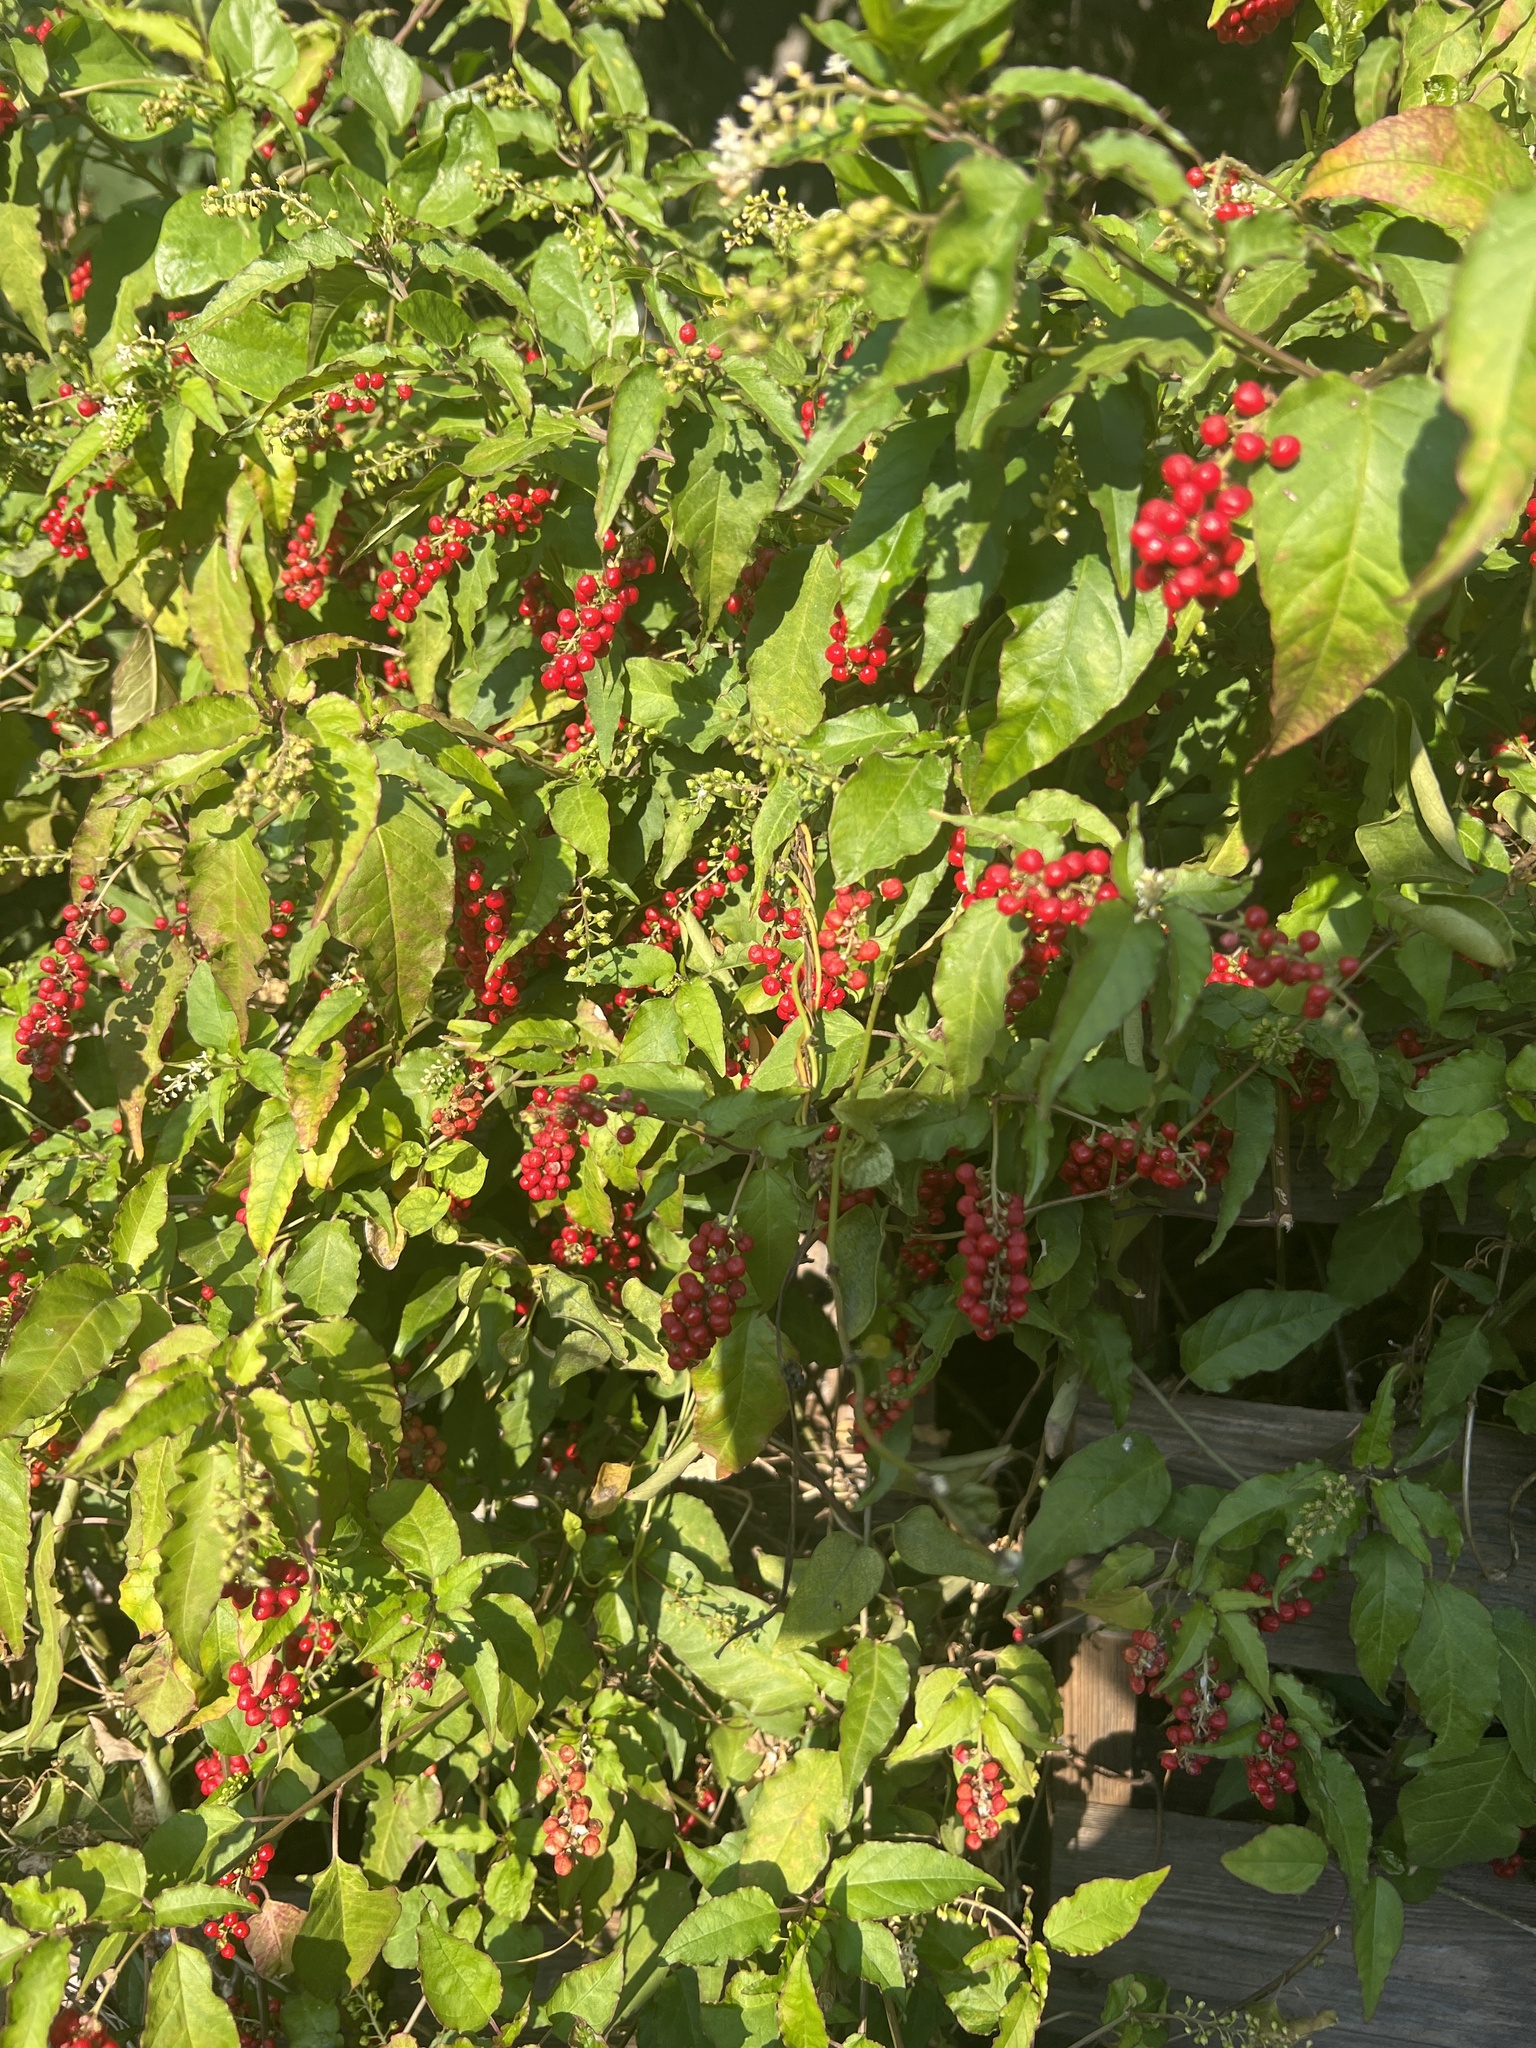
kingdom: Plantae
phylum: Tracheophyta
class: Magnoliopsida
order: Caryophyllales
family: Phytolaccaceae
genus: Rivina
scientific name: Rivina humilis
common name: Rougeplant
